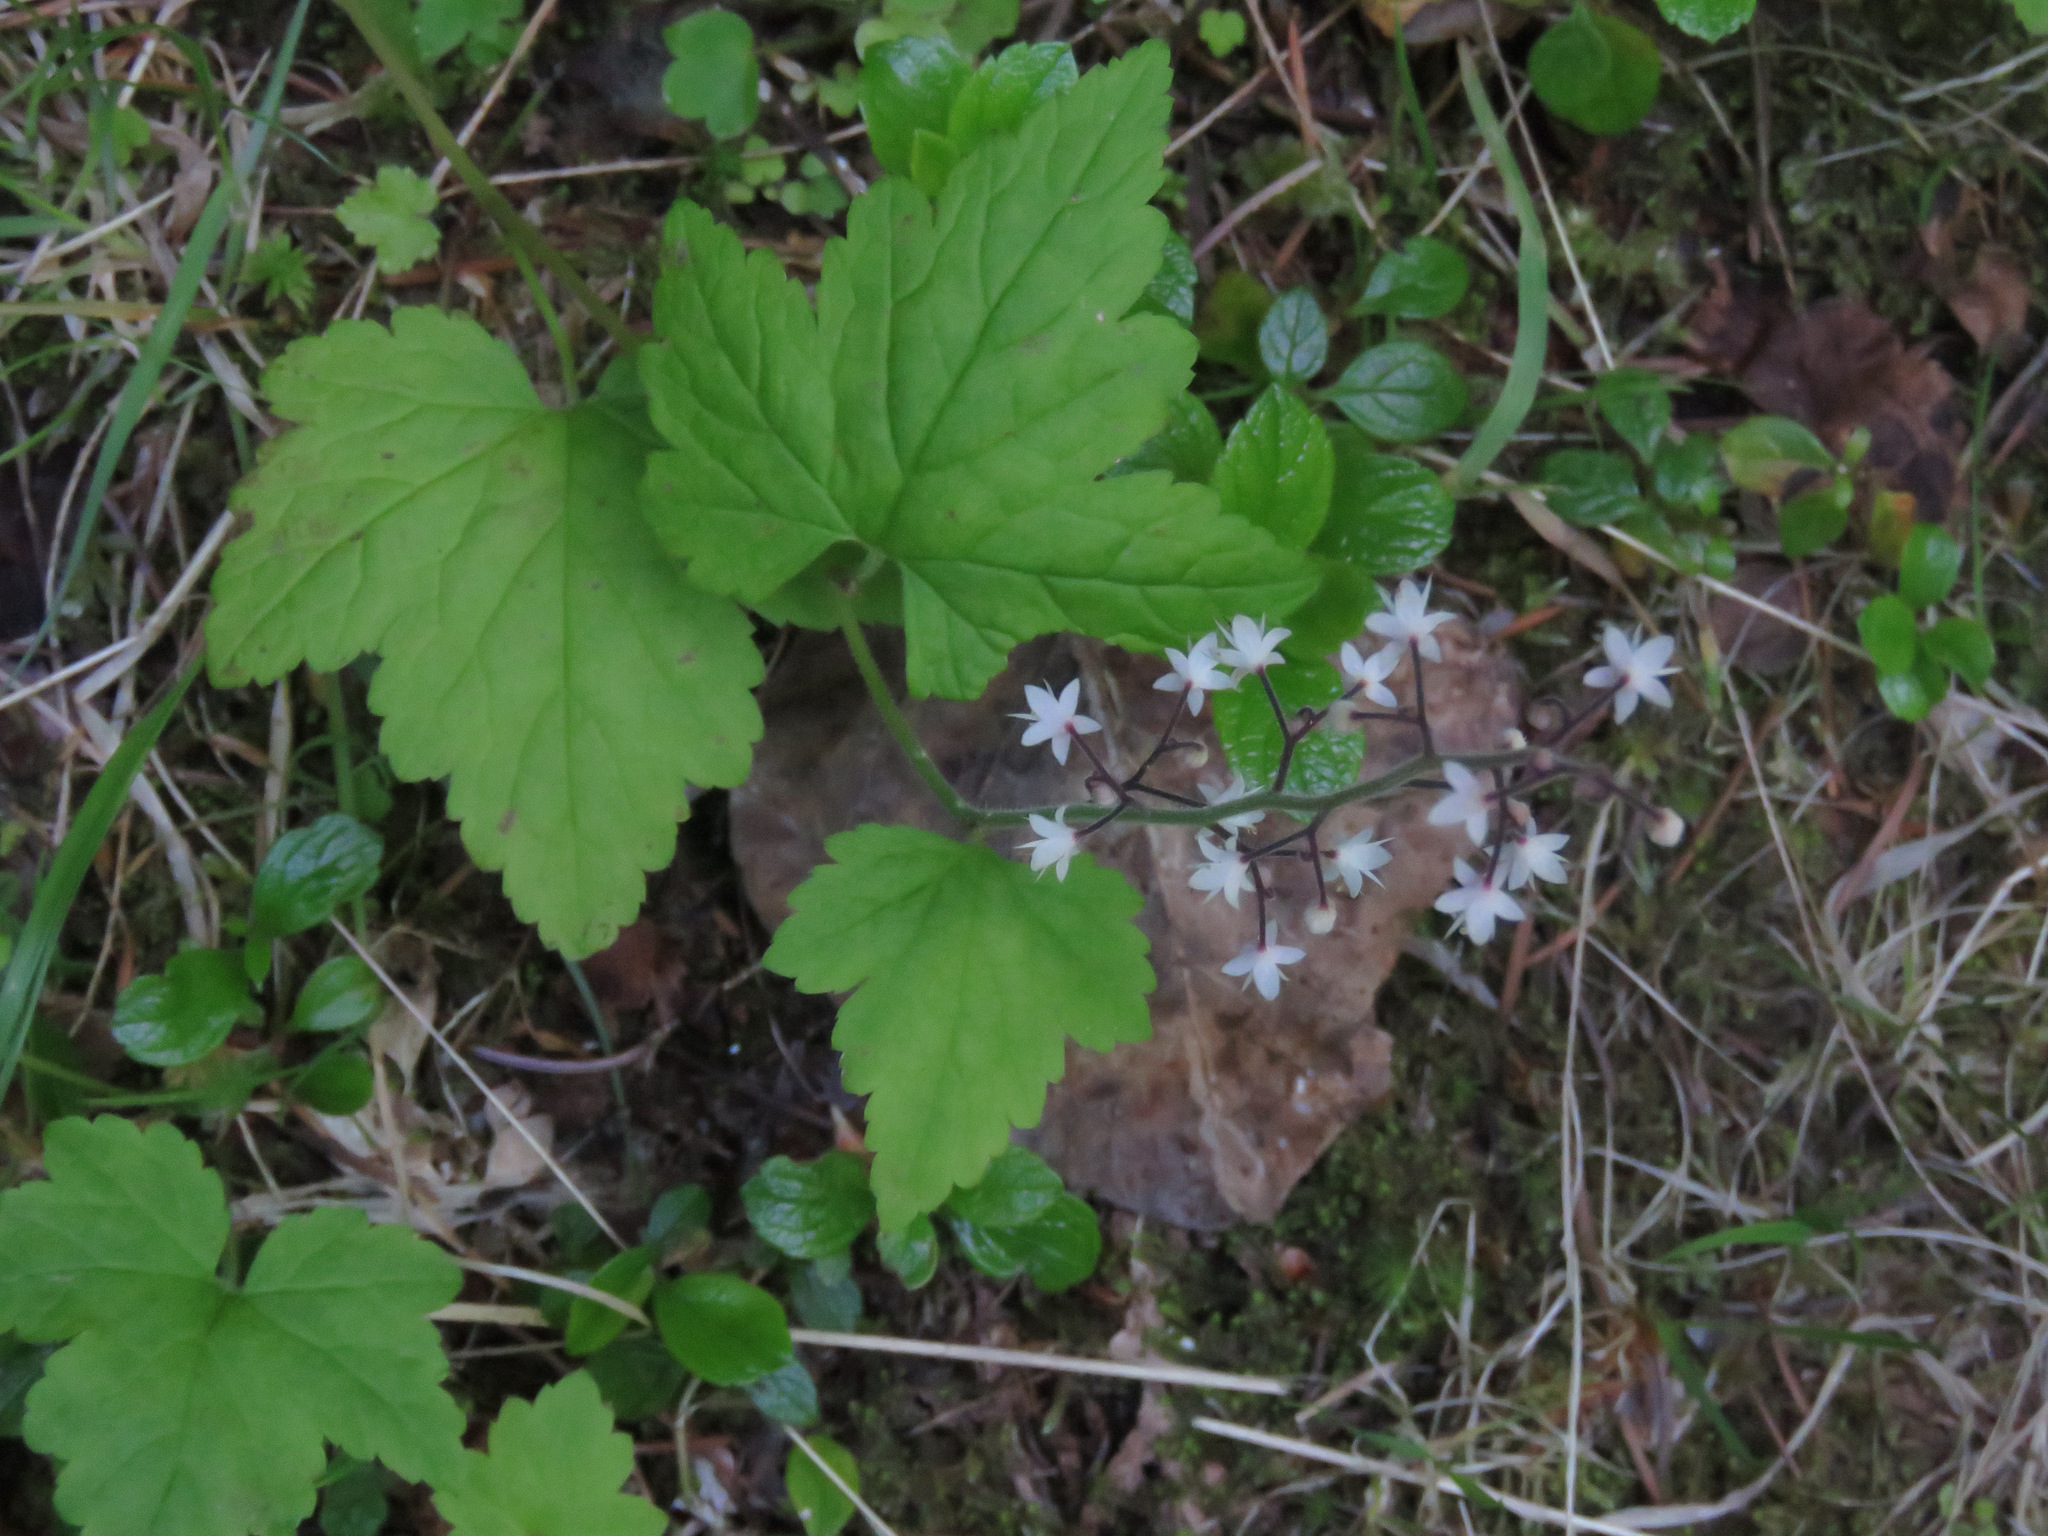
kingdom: Plantae
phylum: Tracheophyta
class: Magnoliopsida
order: Saxifragales
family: Saxifragaceae
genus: Tiarella
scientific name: Tiarella trifoliata
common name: Sugar-scoop
